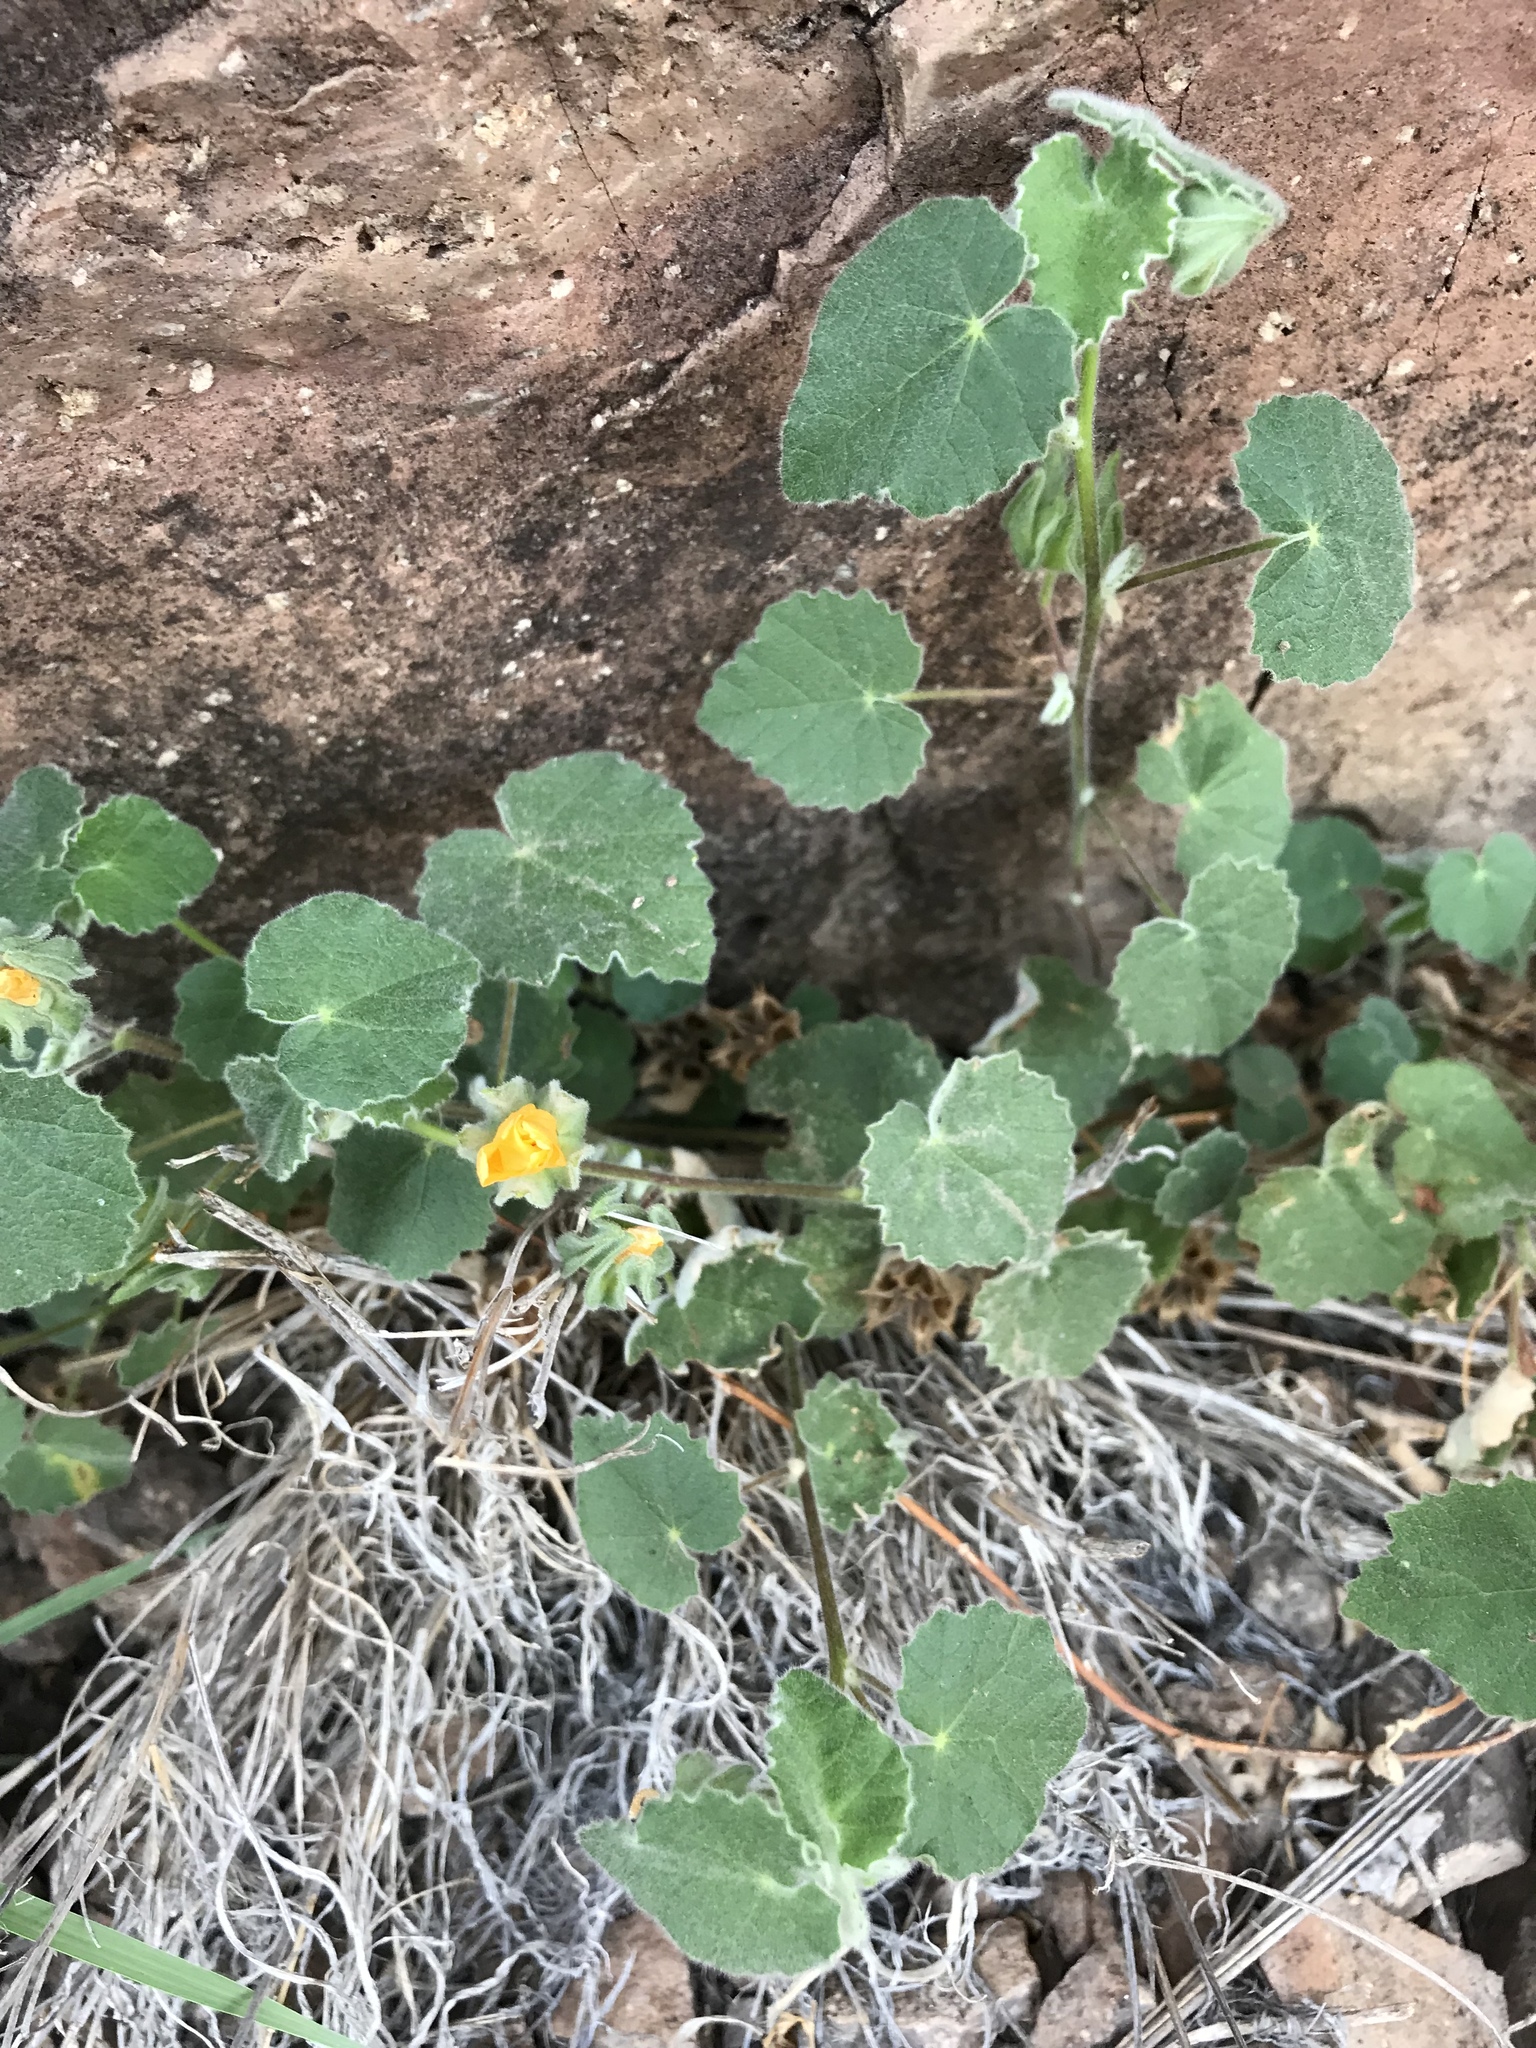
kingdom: Plantae
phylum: Tracheophyta
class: Magnoliopsida
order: Malvales
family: Malvaceae
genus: Abutilon
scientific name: Abutilon wrightii
